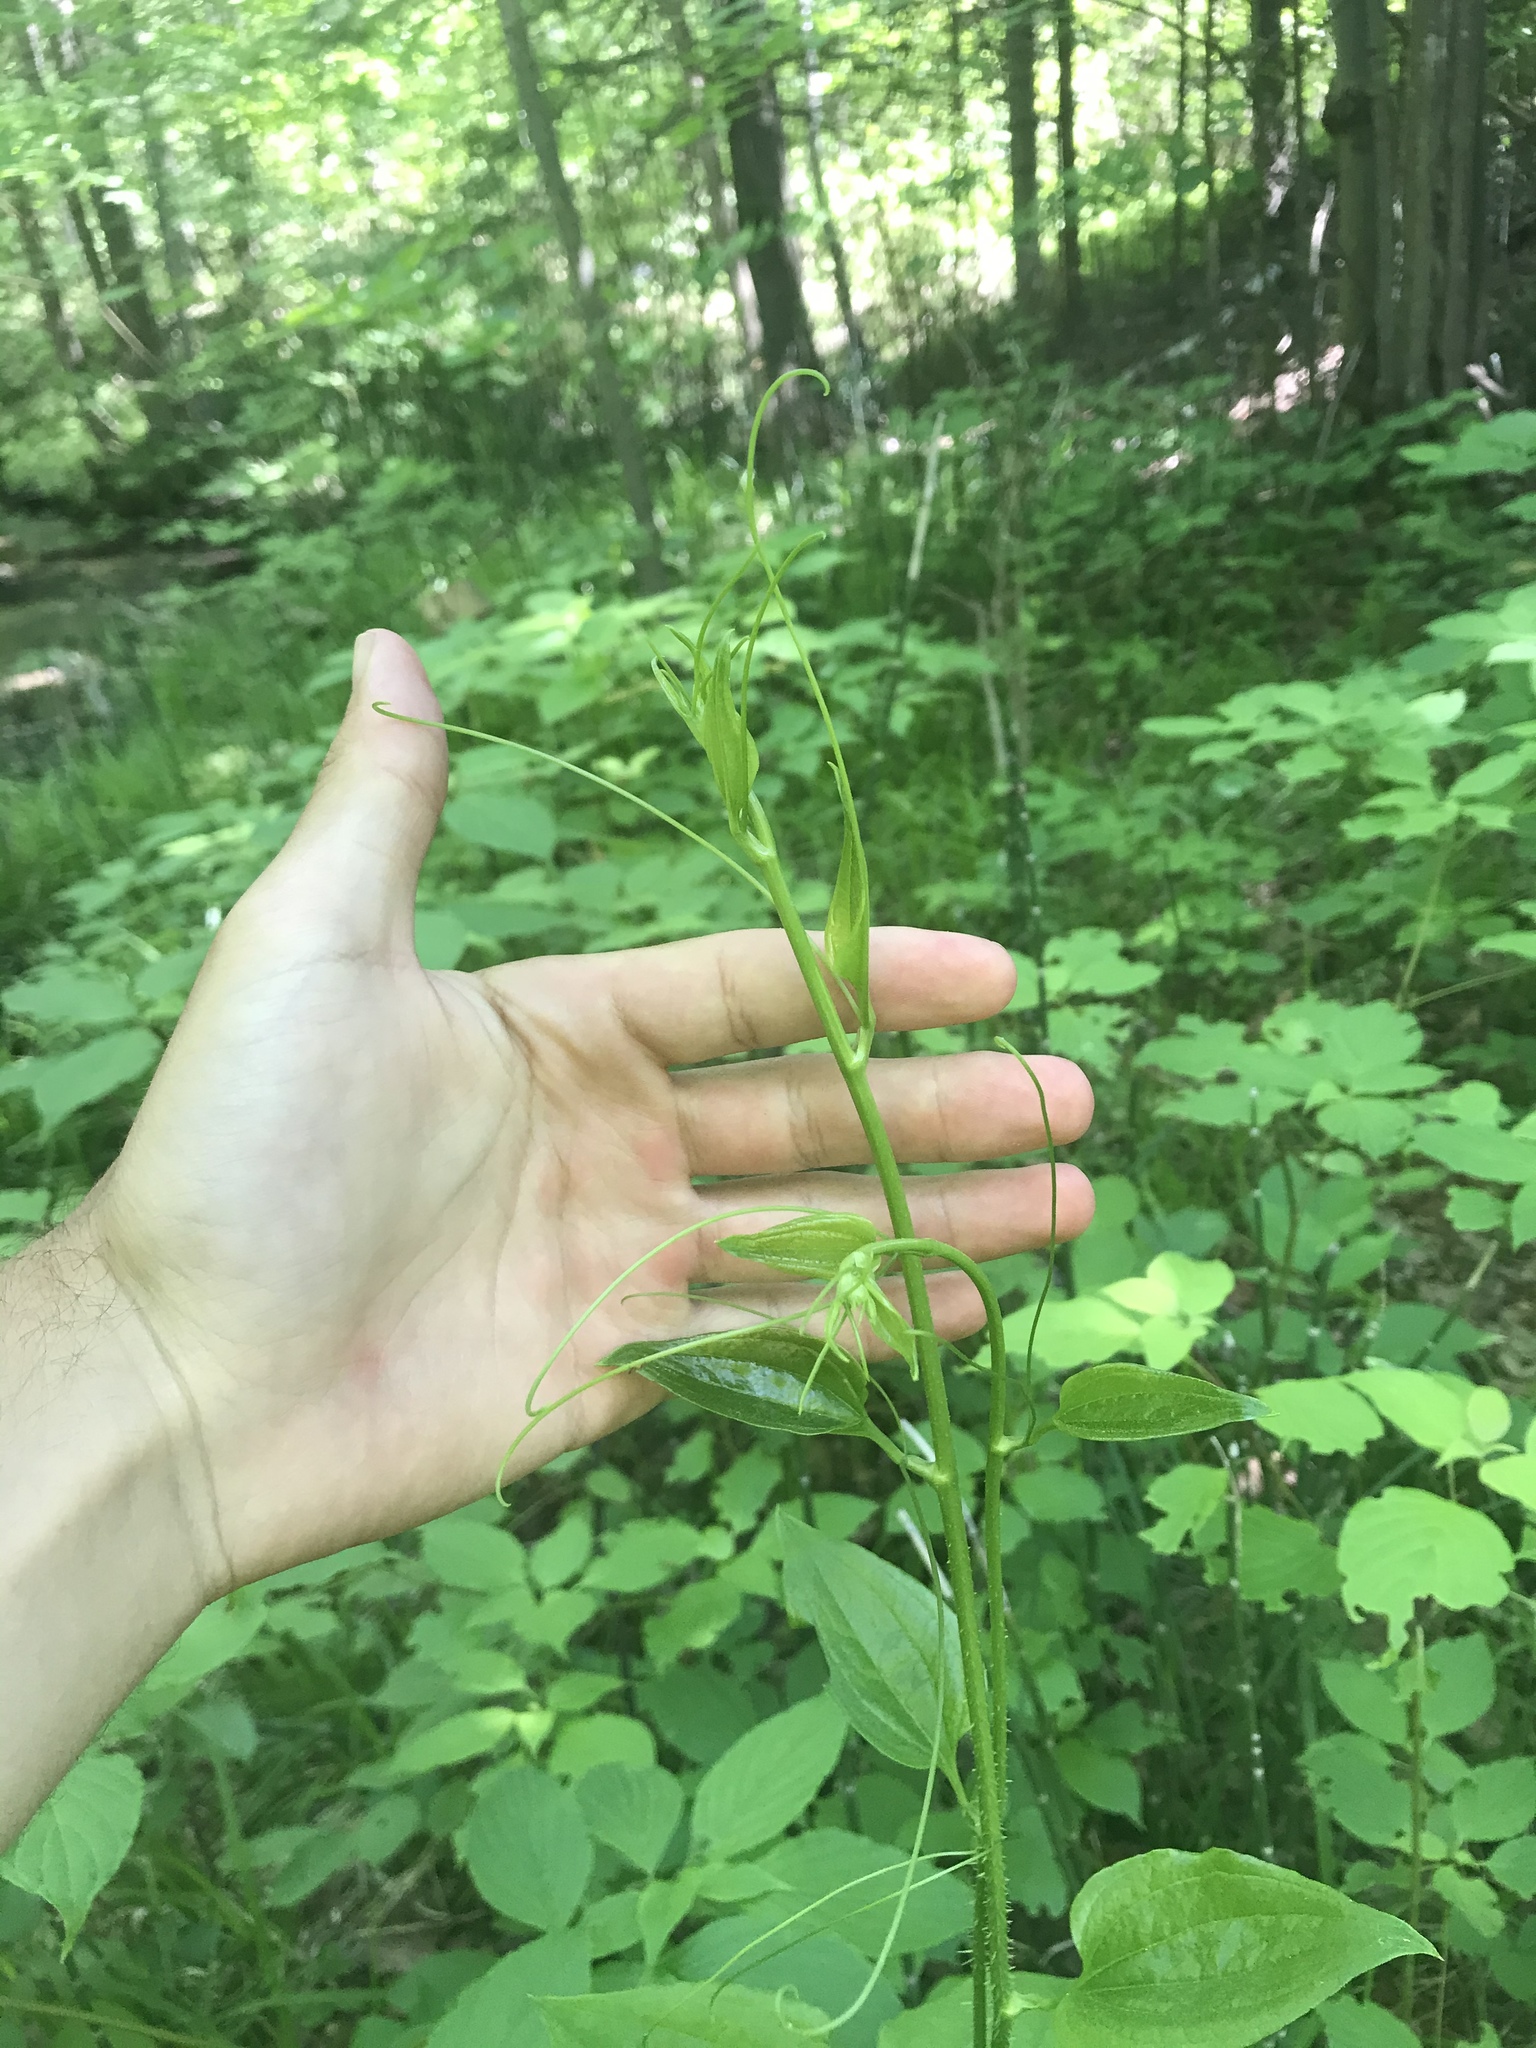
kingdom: Plantae
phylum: Tracheophyta
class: Liliopsida
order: Liliales
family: Smilacaceae
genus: Smilax
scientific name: Smilax tamnoides
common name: Hellfetter
